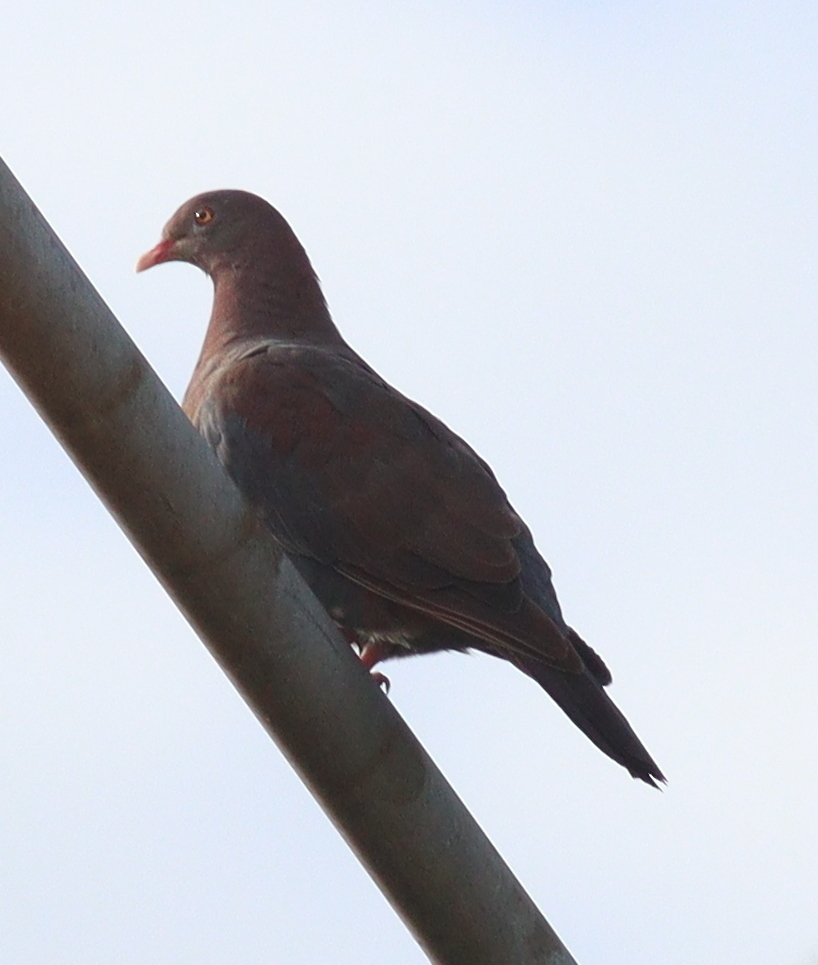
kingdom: Animalia
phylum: Chordata
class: Aves
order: Columbiformes
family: Columbidae
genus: Patagioenas
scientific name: Patagioenas flavirostris
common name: Red-billed pigeon
